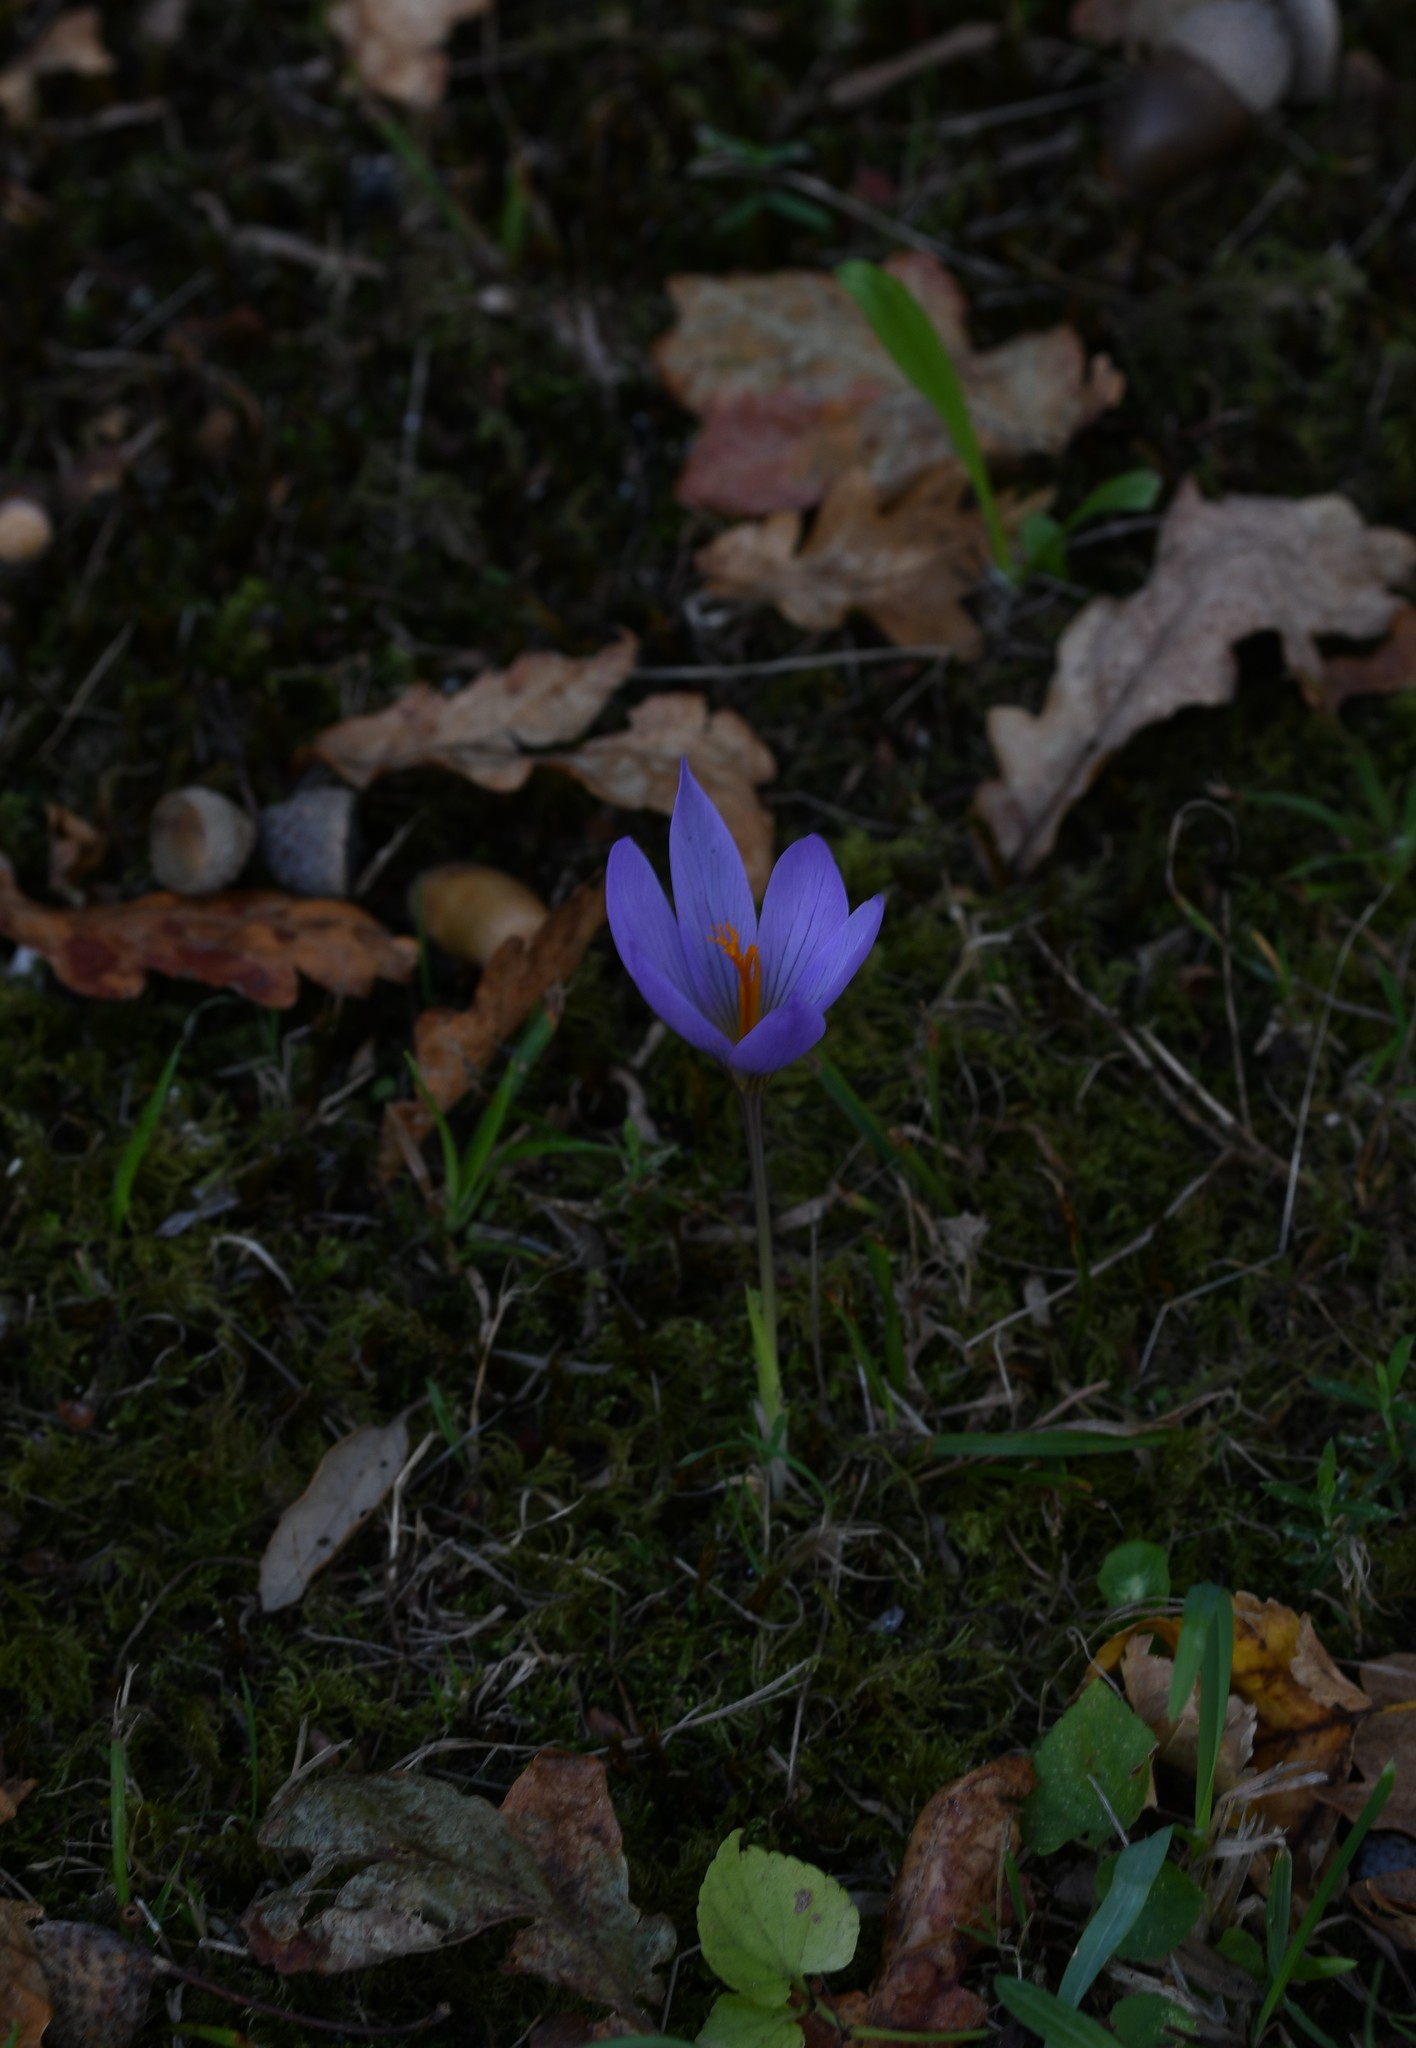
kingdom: Plantae
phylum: Tracheophyta
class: Liliopsida
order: Asparagales
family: Iridaceae
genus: Crocus
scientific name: Crocus serotinus
